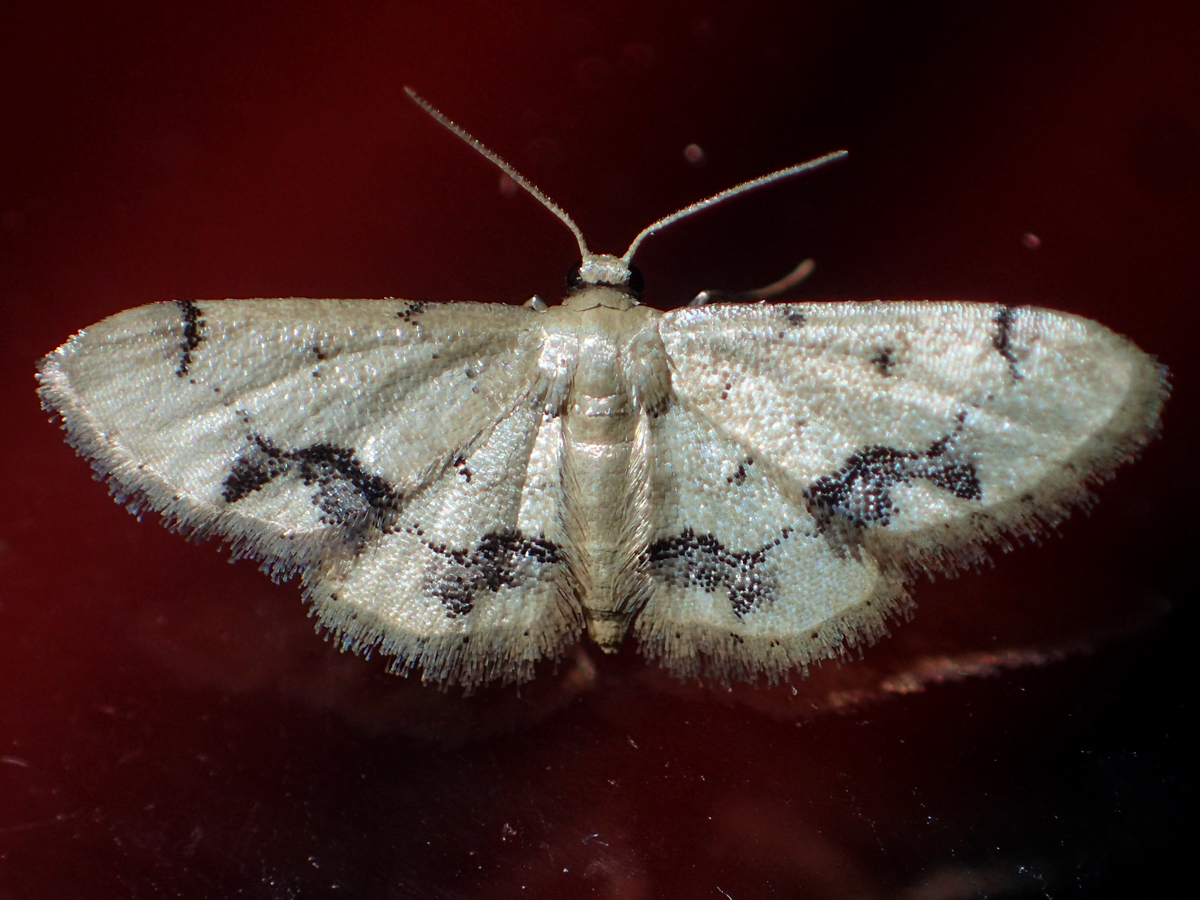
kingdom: Animalia
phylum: Arthropoda
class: Insecta
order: Lepidoptera
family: Geometridae
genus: Idaea
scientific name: Idaea chotaria
